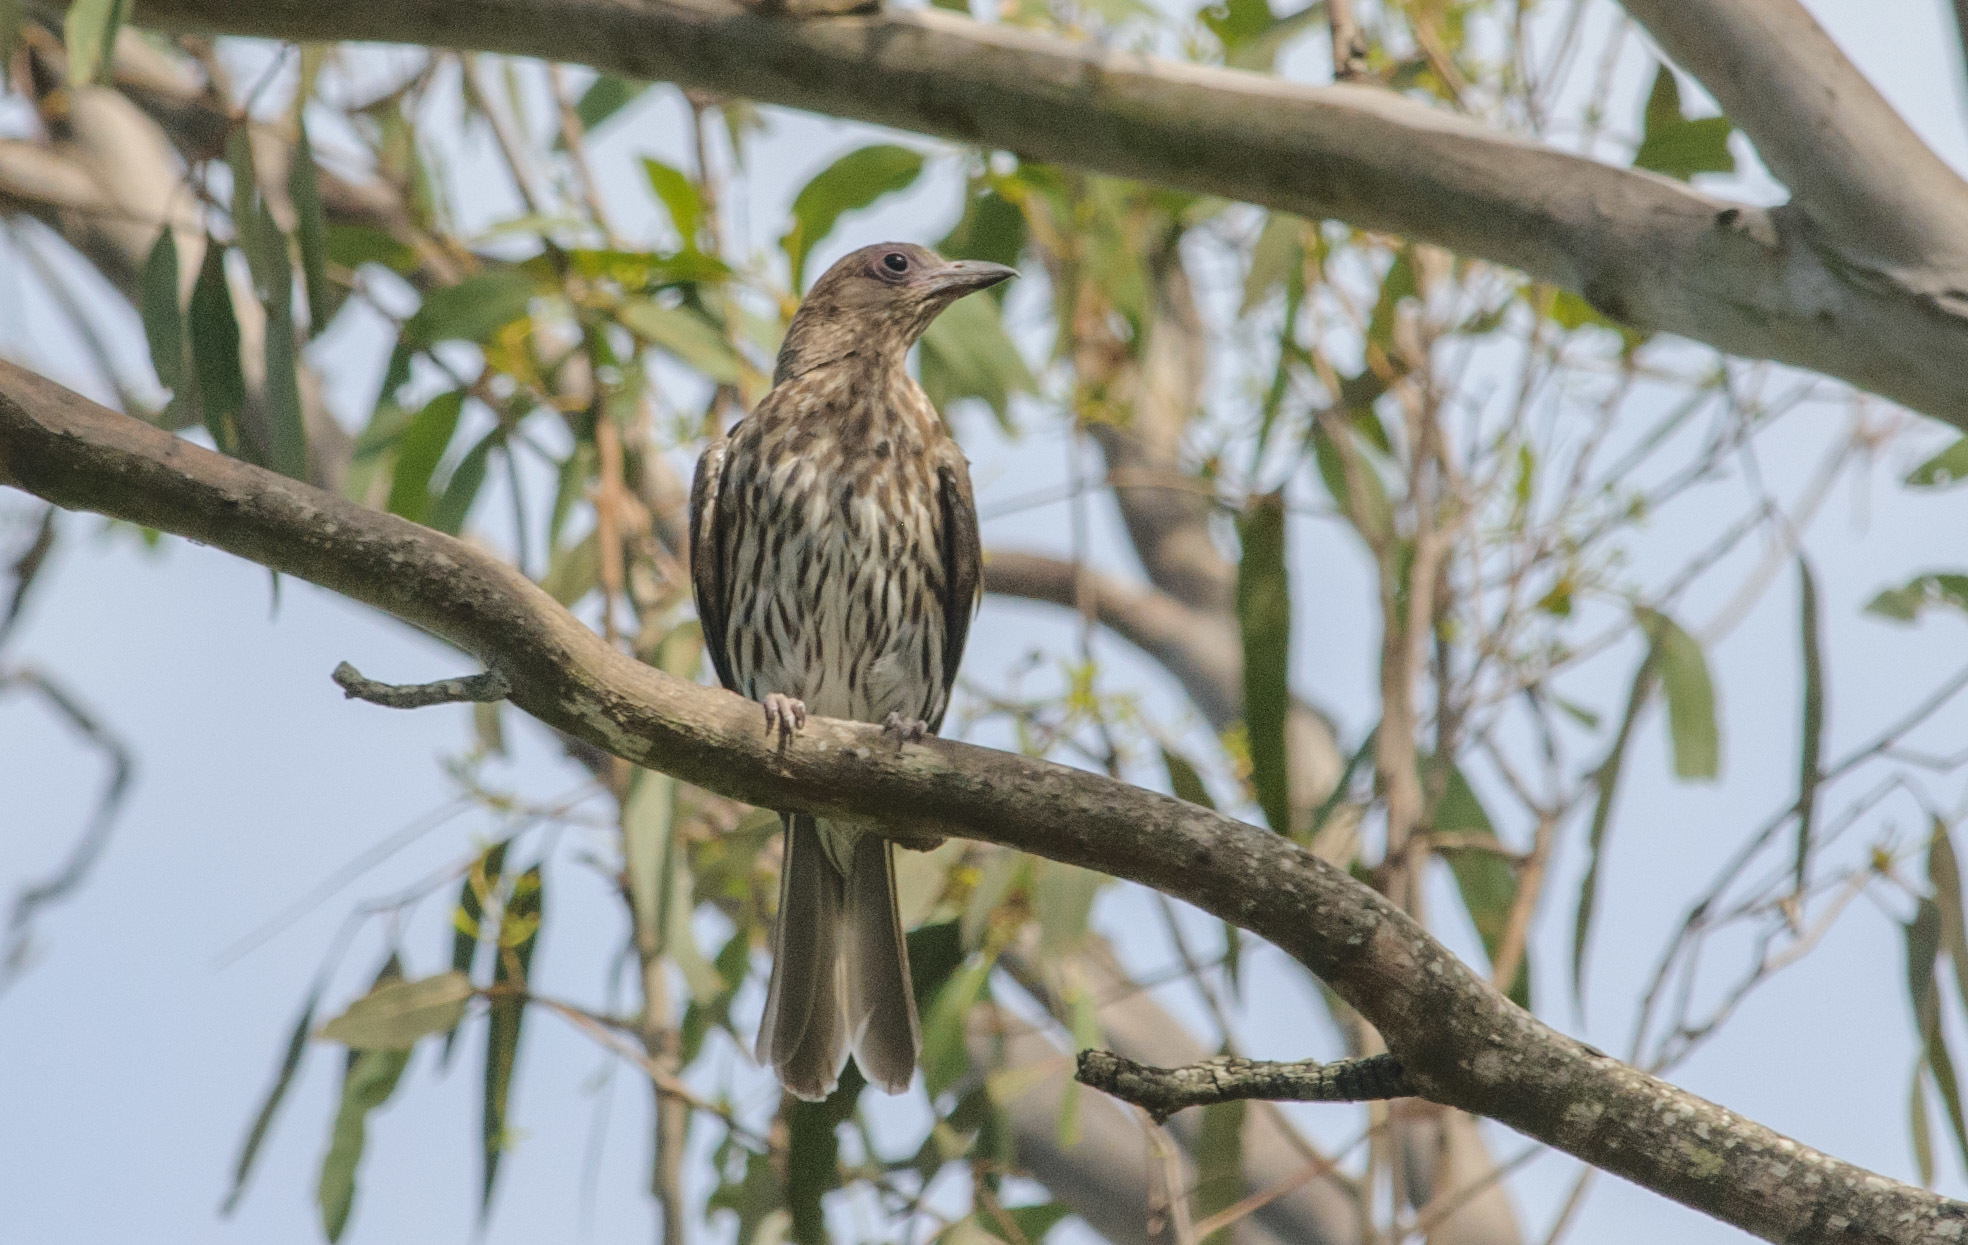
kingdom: Animalia
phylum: Chordata
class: Aves
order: Passeriformes
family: Oriolidae
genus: Sphecotheres
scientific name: Sphecotheres vieilloti
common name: Australasian figbird
